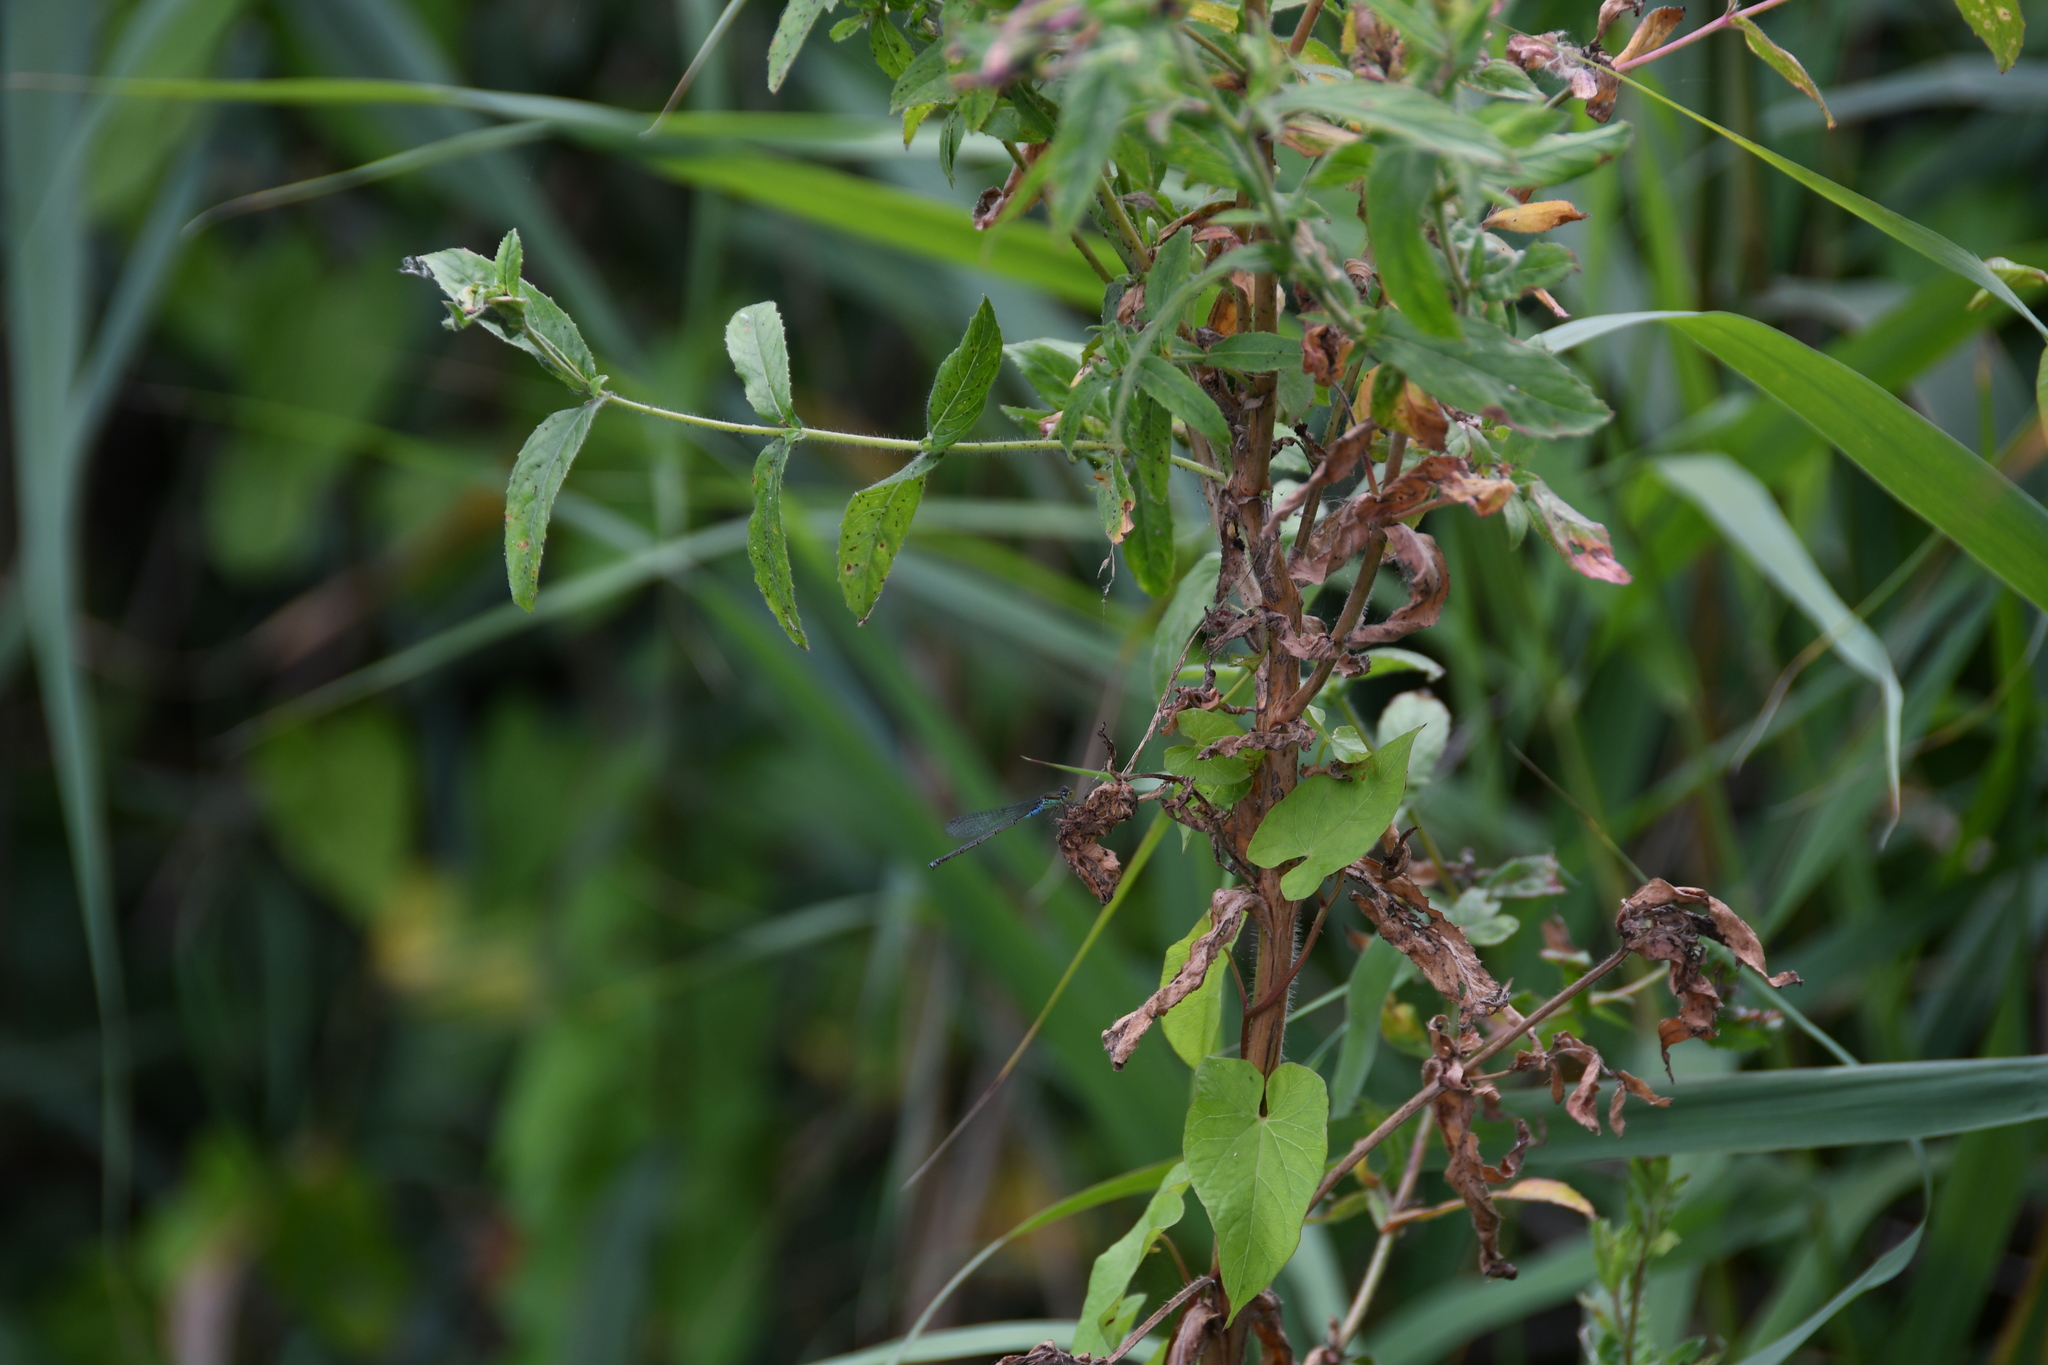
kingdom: Animalia
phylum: Arthropoda
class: Insecta
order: Odonata
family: Coenagrionidae
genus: Erythromma
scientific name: Erythromma viridulum
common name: Small red-eyed damselfly
